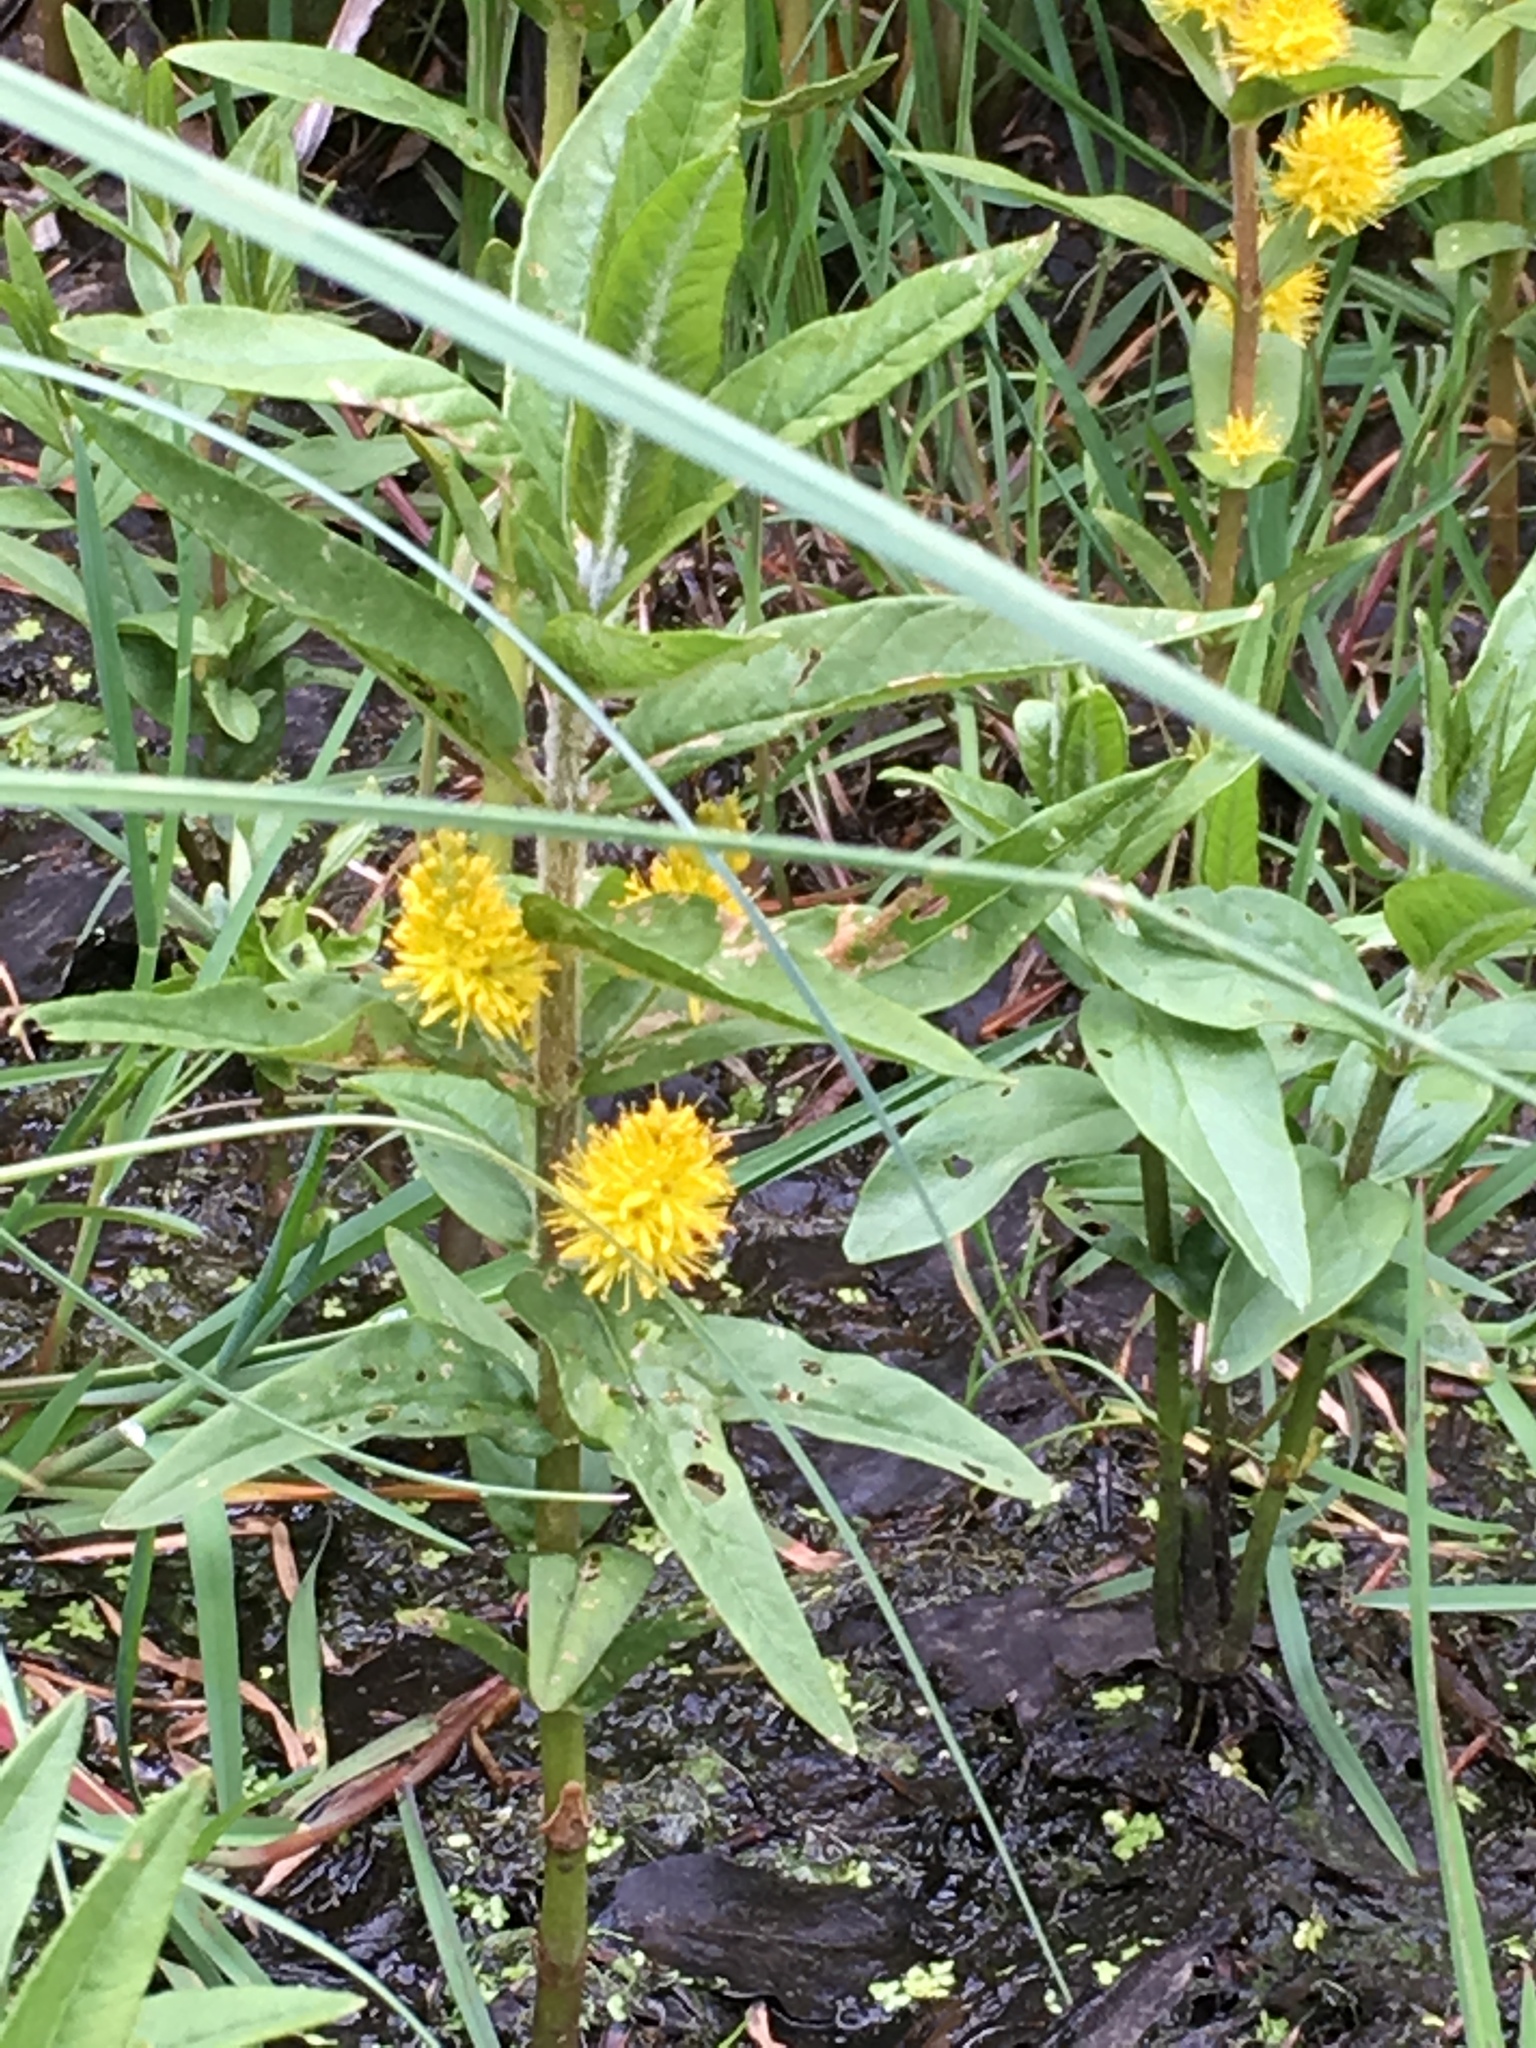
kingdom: Plantae
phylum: Tracheophyta
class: Magnoliopsida
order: Ericales
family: Primulaceae
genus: Lysimachia
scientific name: Lysimachia thyrsiflora
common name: Tufted loosestrife
